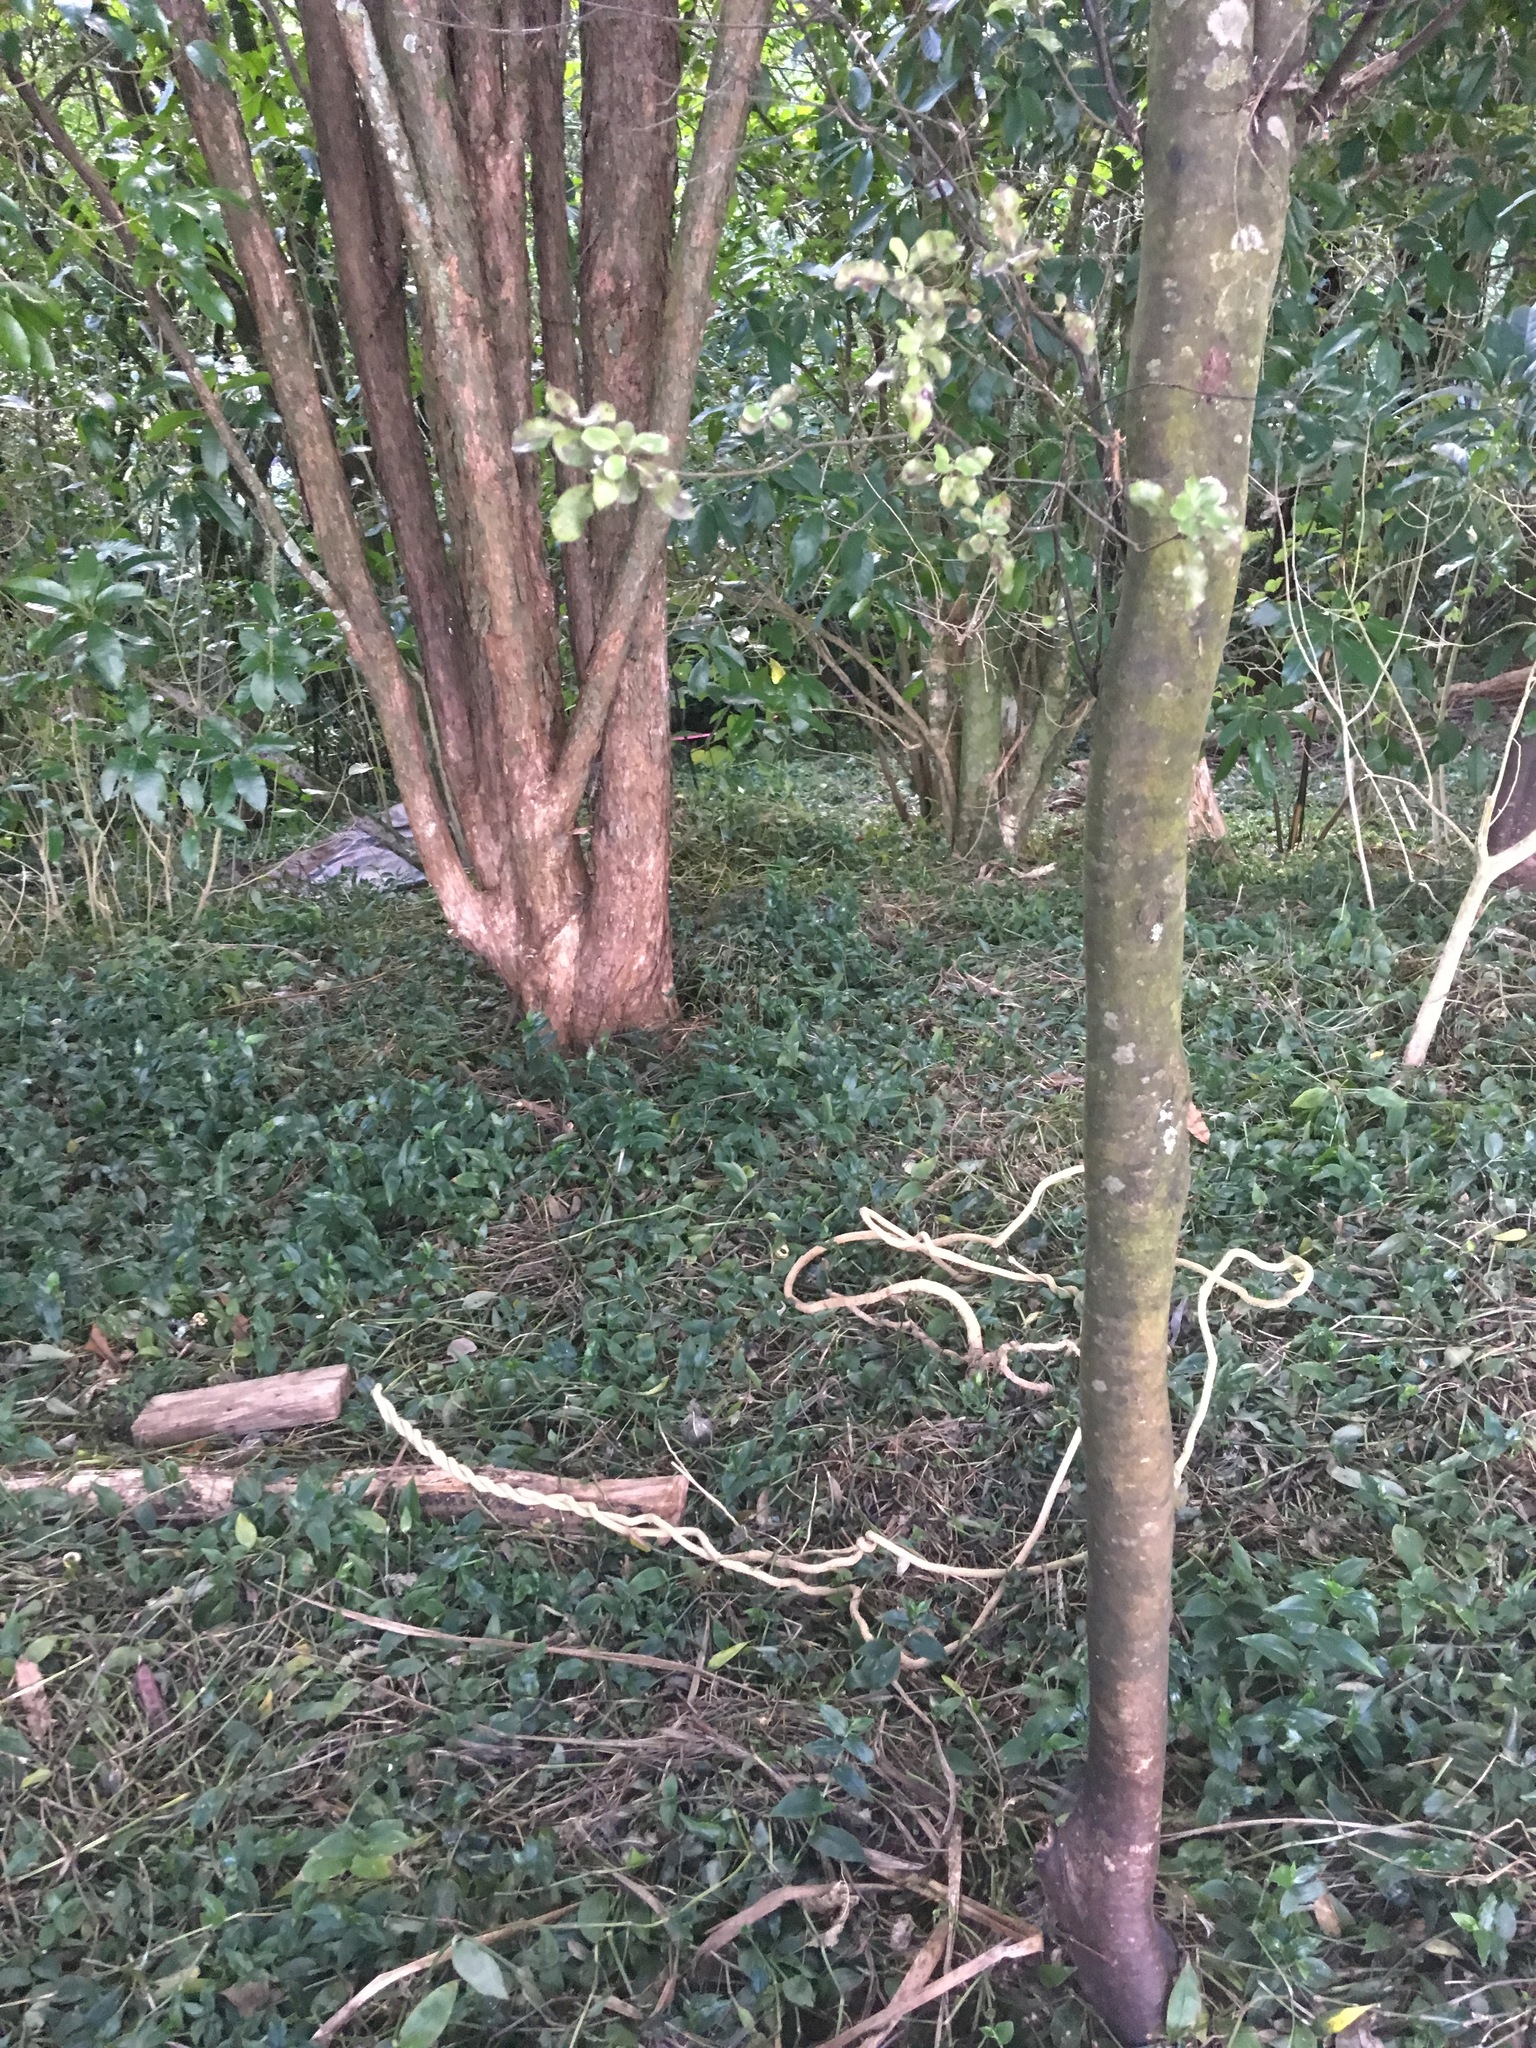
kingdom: Plantae
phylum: Tracheophyta
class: Liliopsida
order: Commelinales
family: Commelinaceae
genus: Tradescantia
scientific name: Tradescantia fluminensis
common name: Wandering-jew
